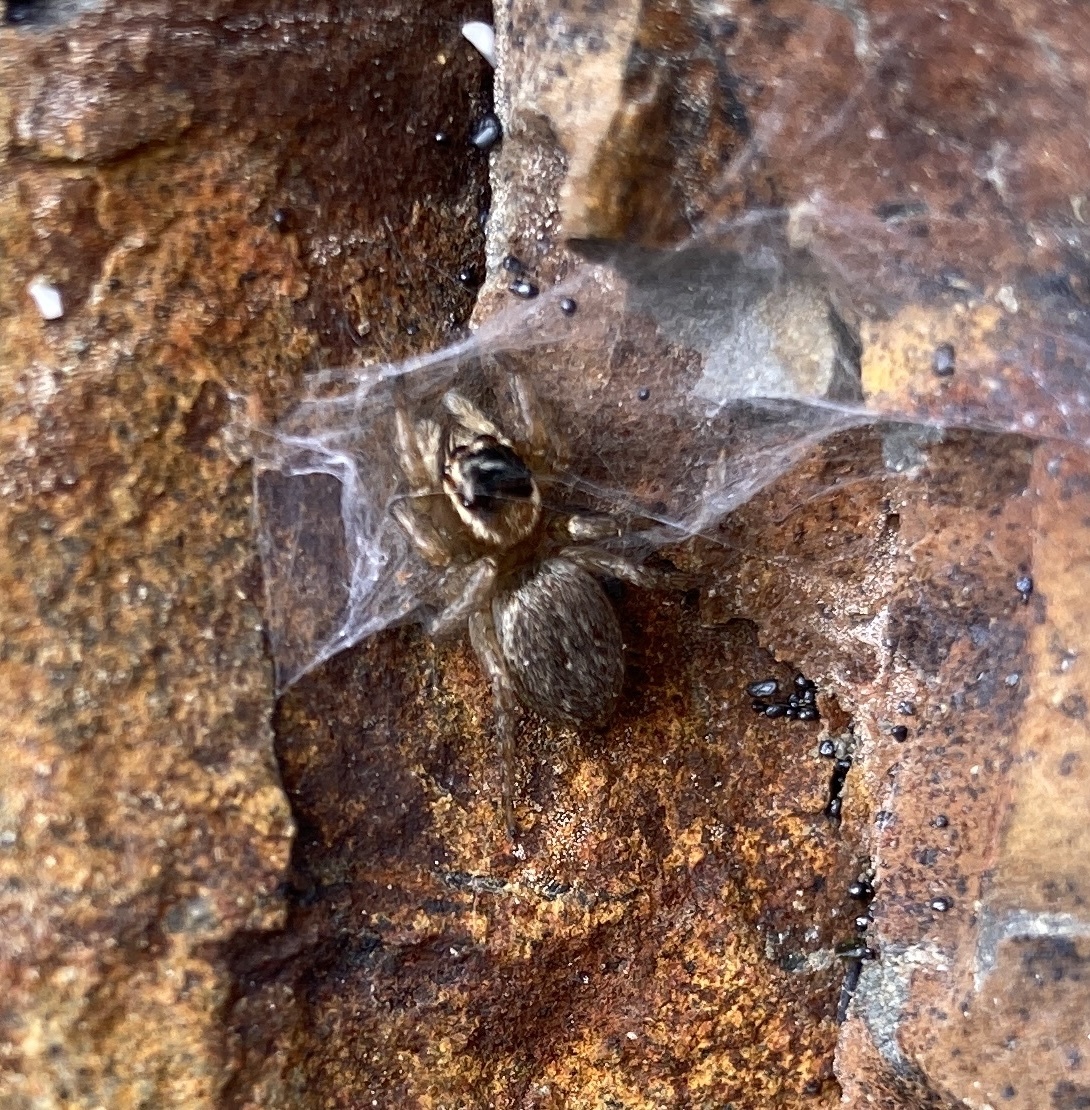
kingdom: Animalia
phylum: Arthropoda
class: Arachnida
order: Araneae
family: Salticidae
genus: Maratus
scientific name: Maratus griseus
